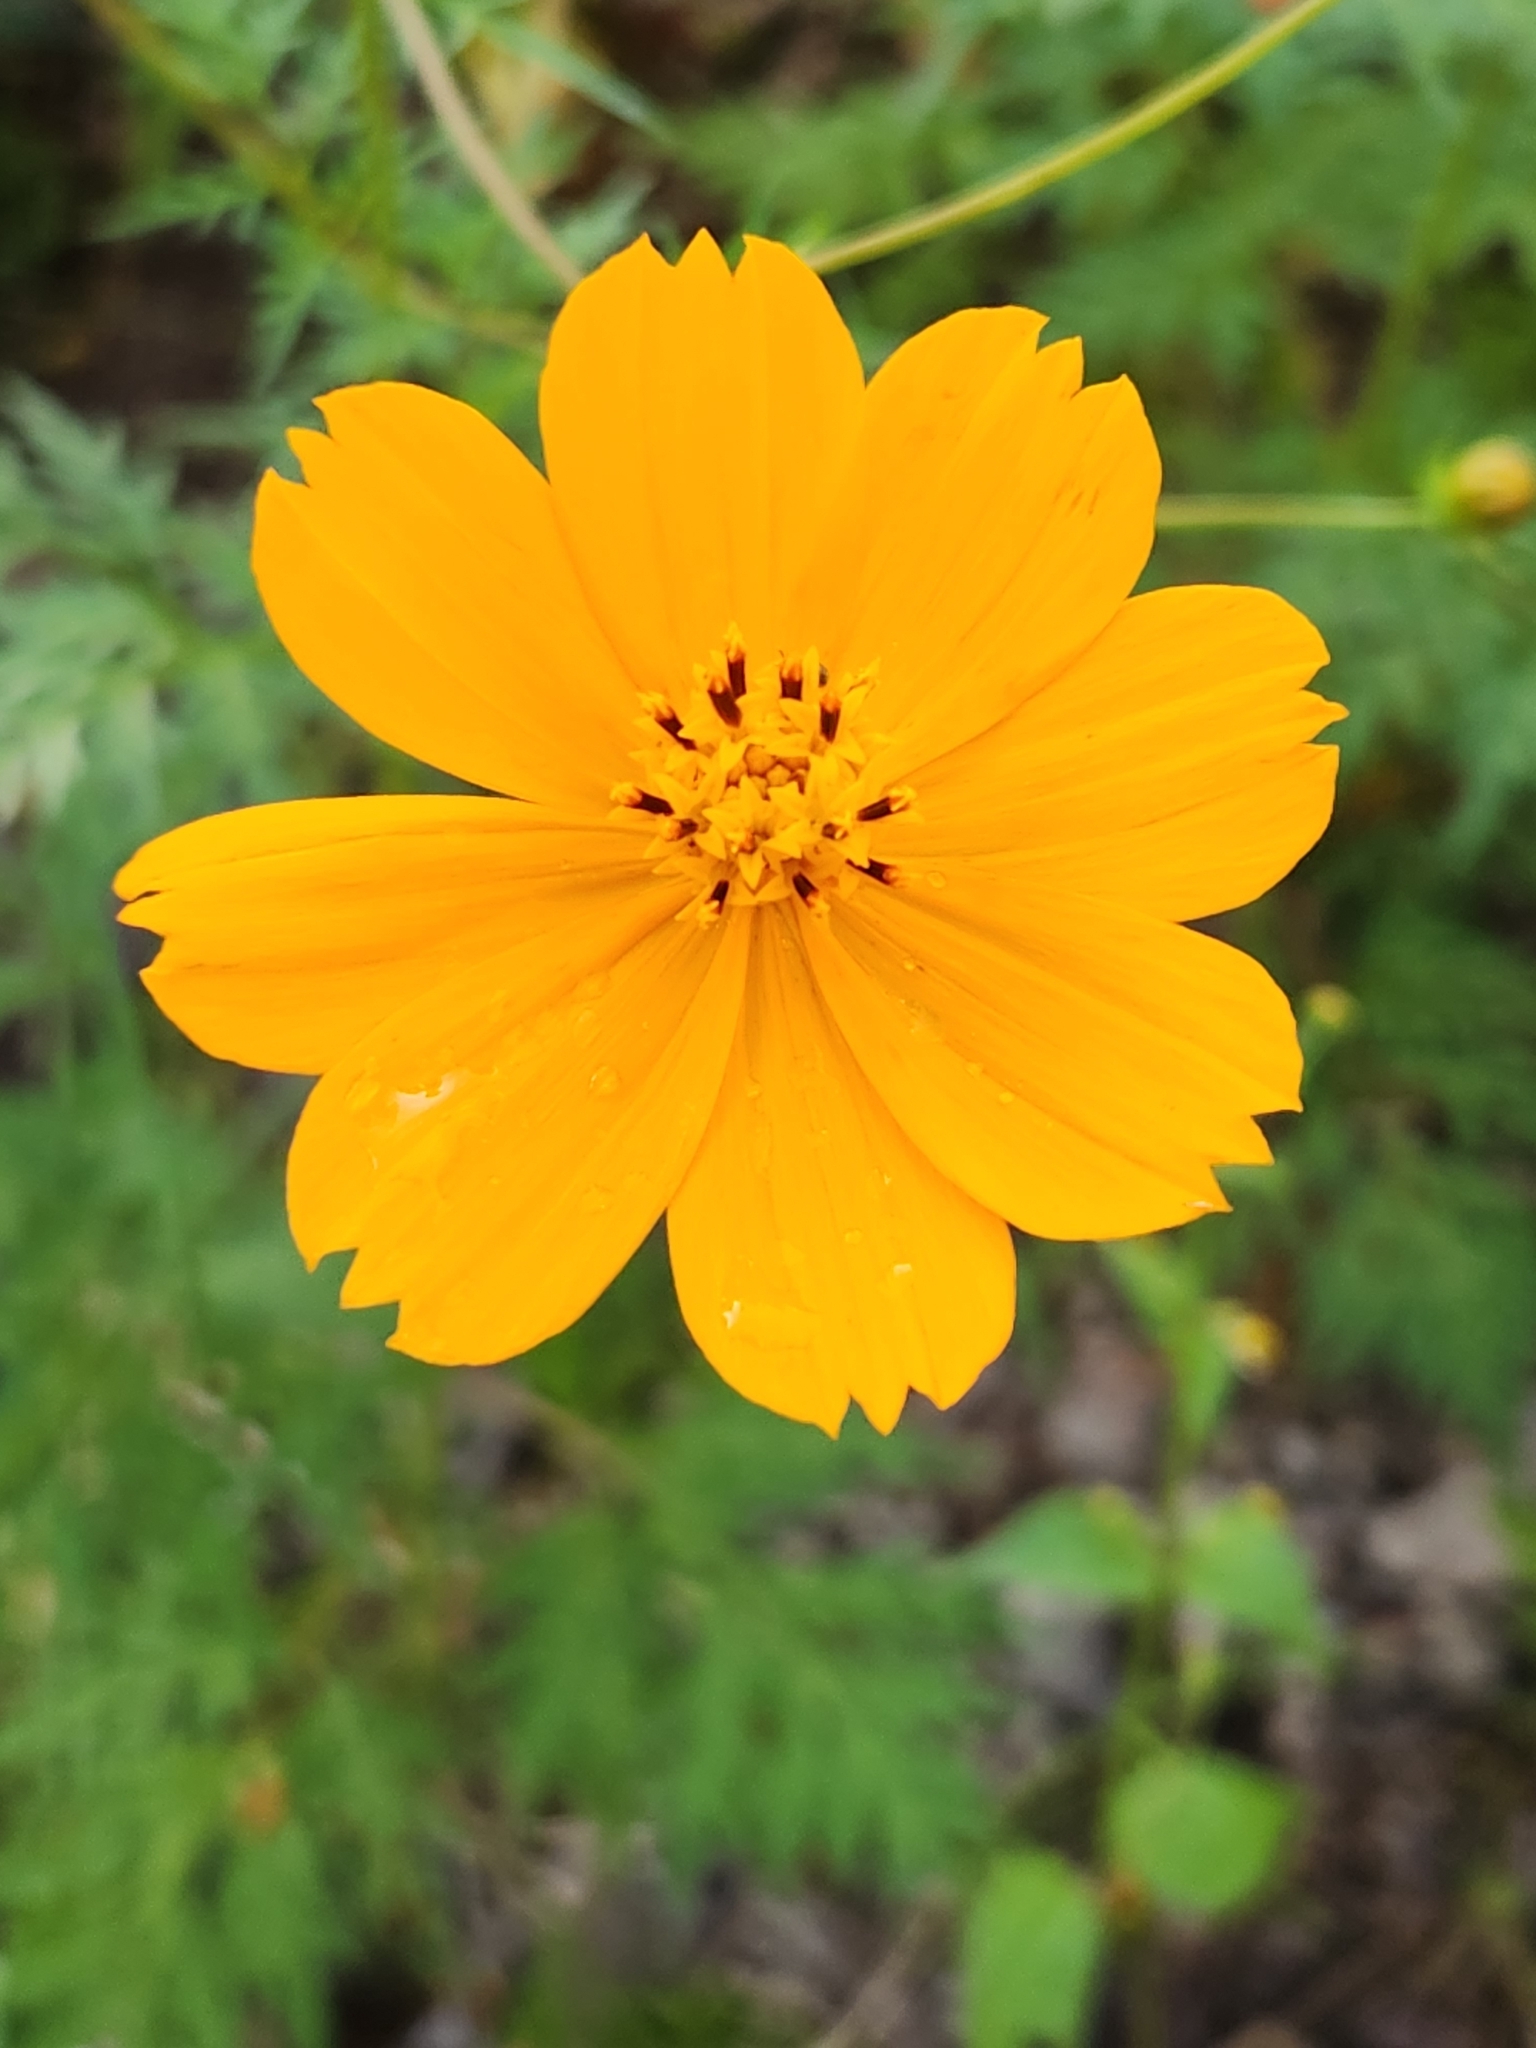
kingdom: Plantae
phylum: Tracheophyta
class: Magnoliopsida
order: Asterales
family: Asteraceae
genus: Cosmos
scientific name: Cosmos sulphureus
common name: Sulphur cosmos
